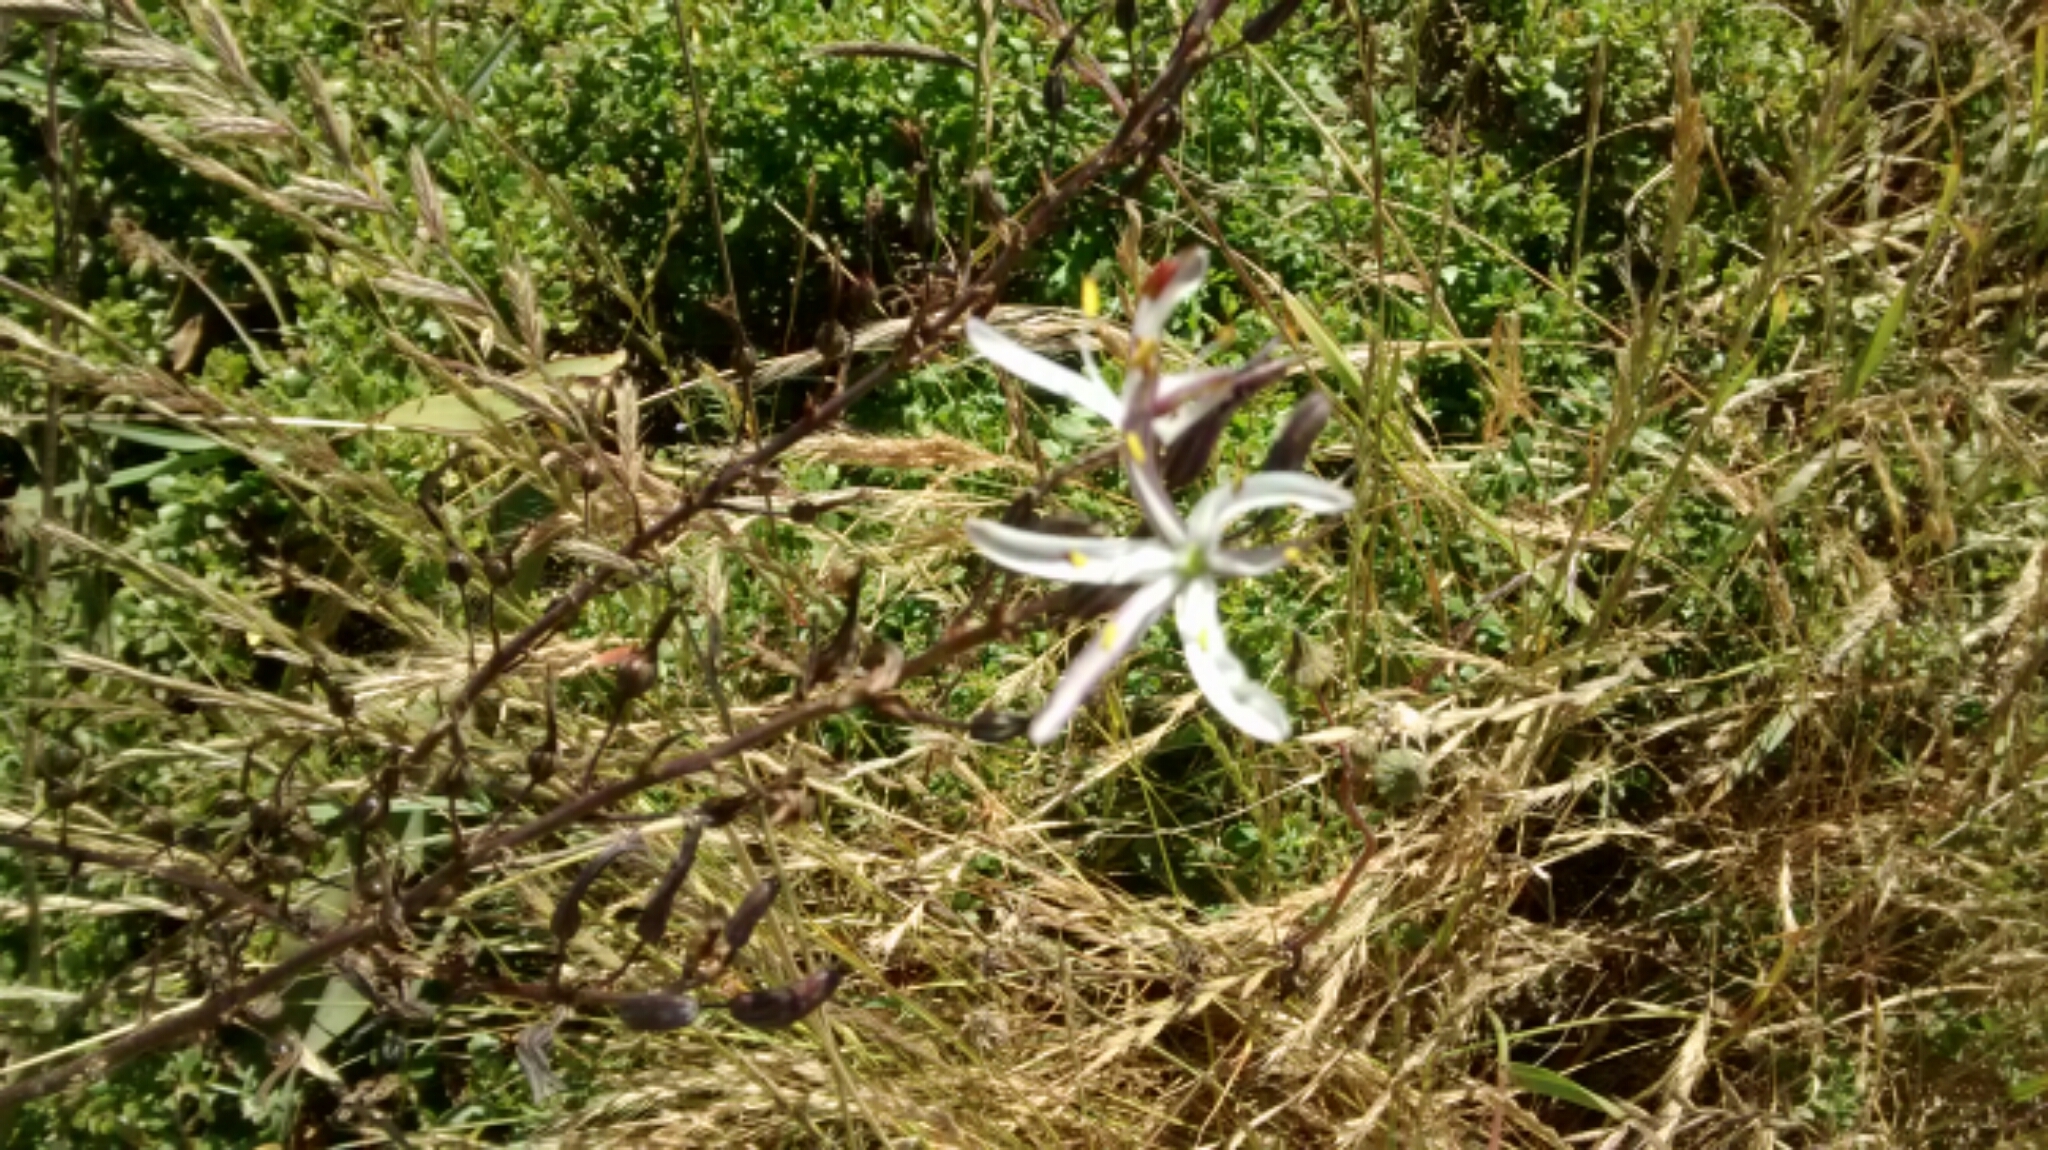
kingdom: Plantae
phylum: Tracheophyta
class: Liliopsida
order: Asparagales
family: Asparagaceae
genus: Chlorogalum
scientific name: Chlorogalum pomeridianum
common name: Amole
